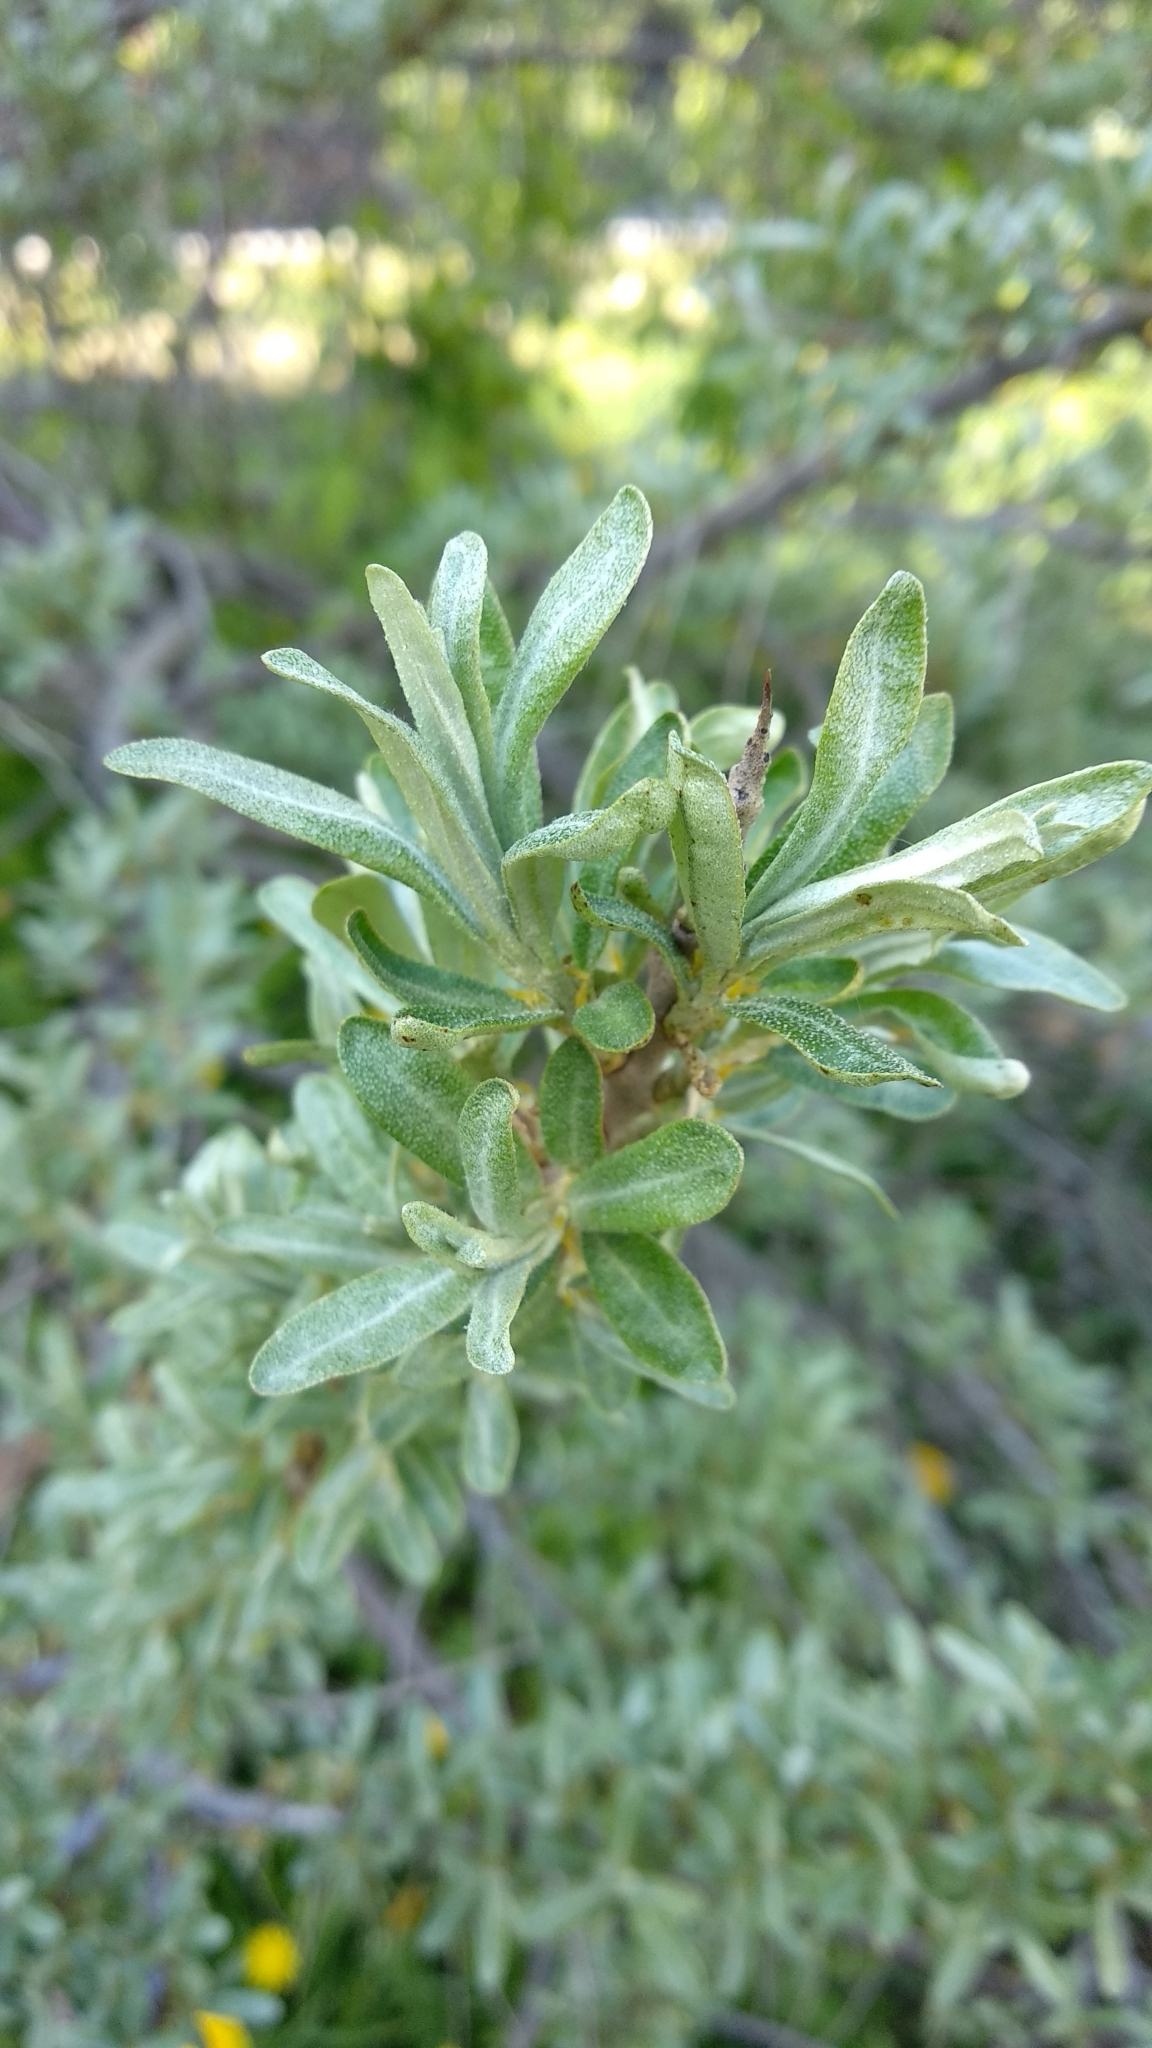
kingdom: Plantae
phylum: Tracheophyta
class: Magnoliopsida
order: Rosales
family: Elaeagnaceae
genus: Hippophae
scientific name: Hippophae rhamnoides
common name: Sea-buckthorn
